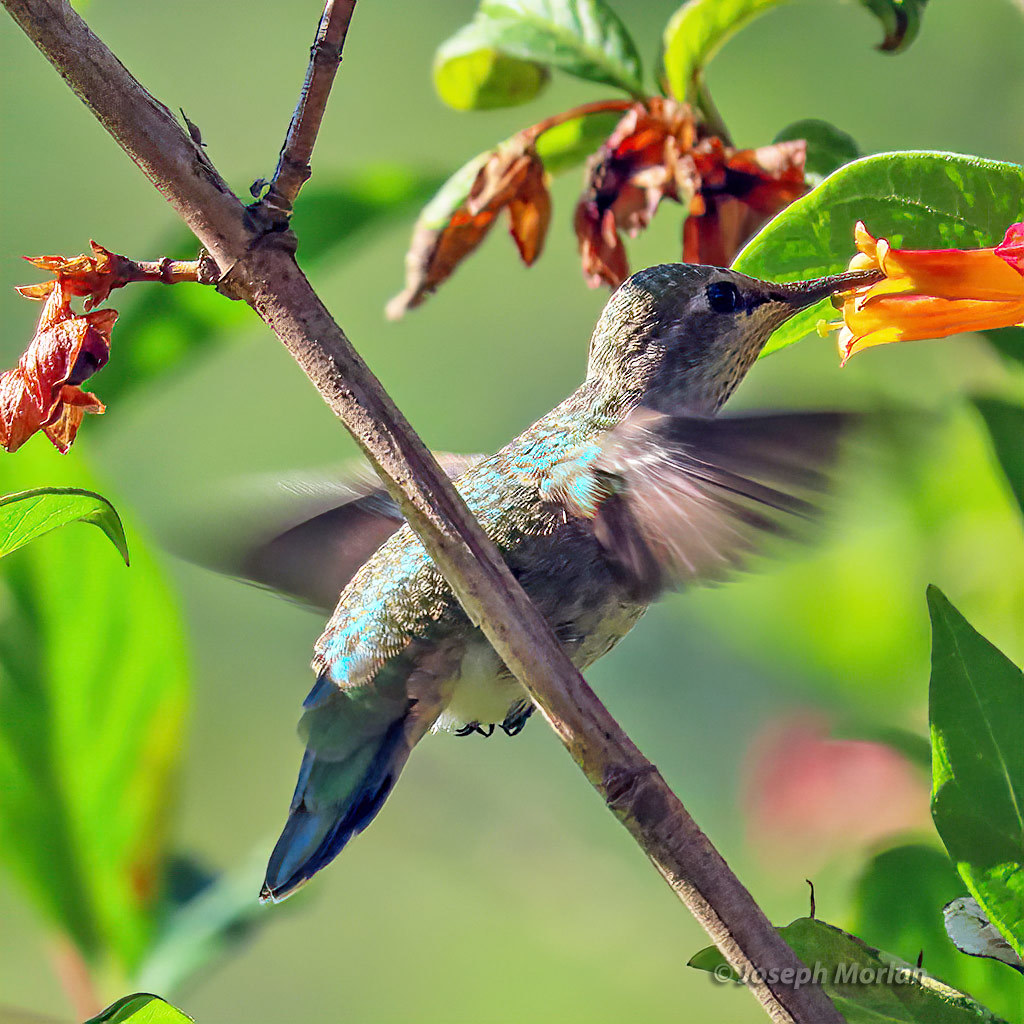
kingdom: Animalia
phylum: Chordata
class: Aves
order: Apodiformes
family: Trochilidae
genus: Calypte
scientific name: Calypte anna
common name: Anna's hummingbird
